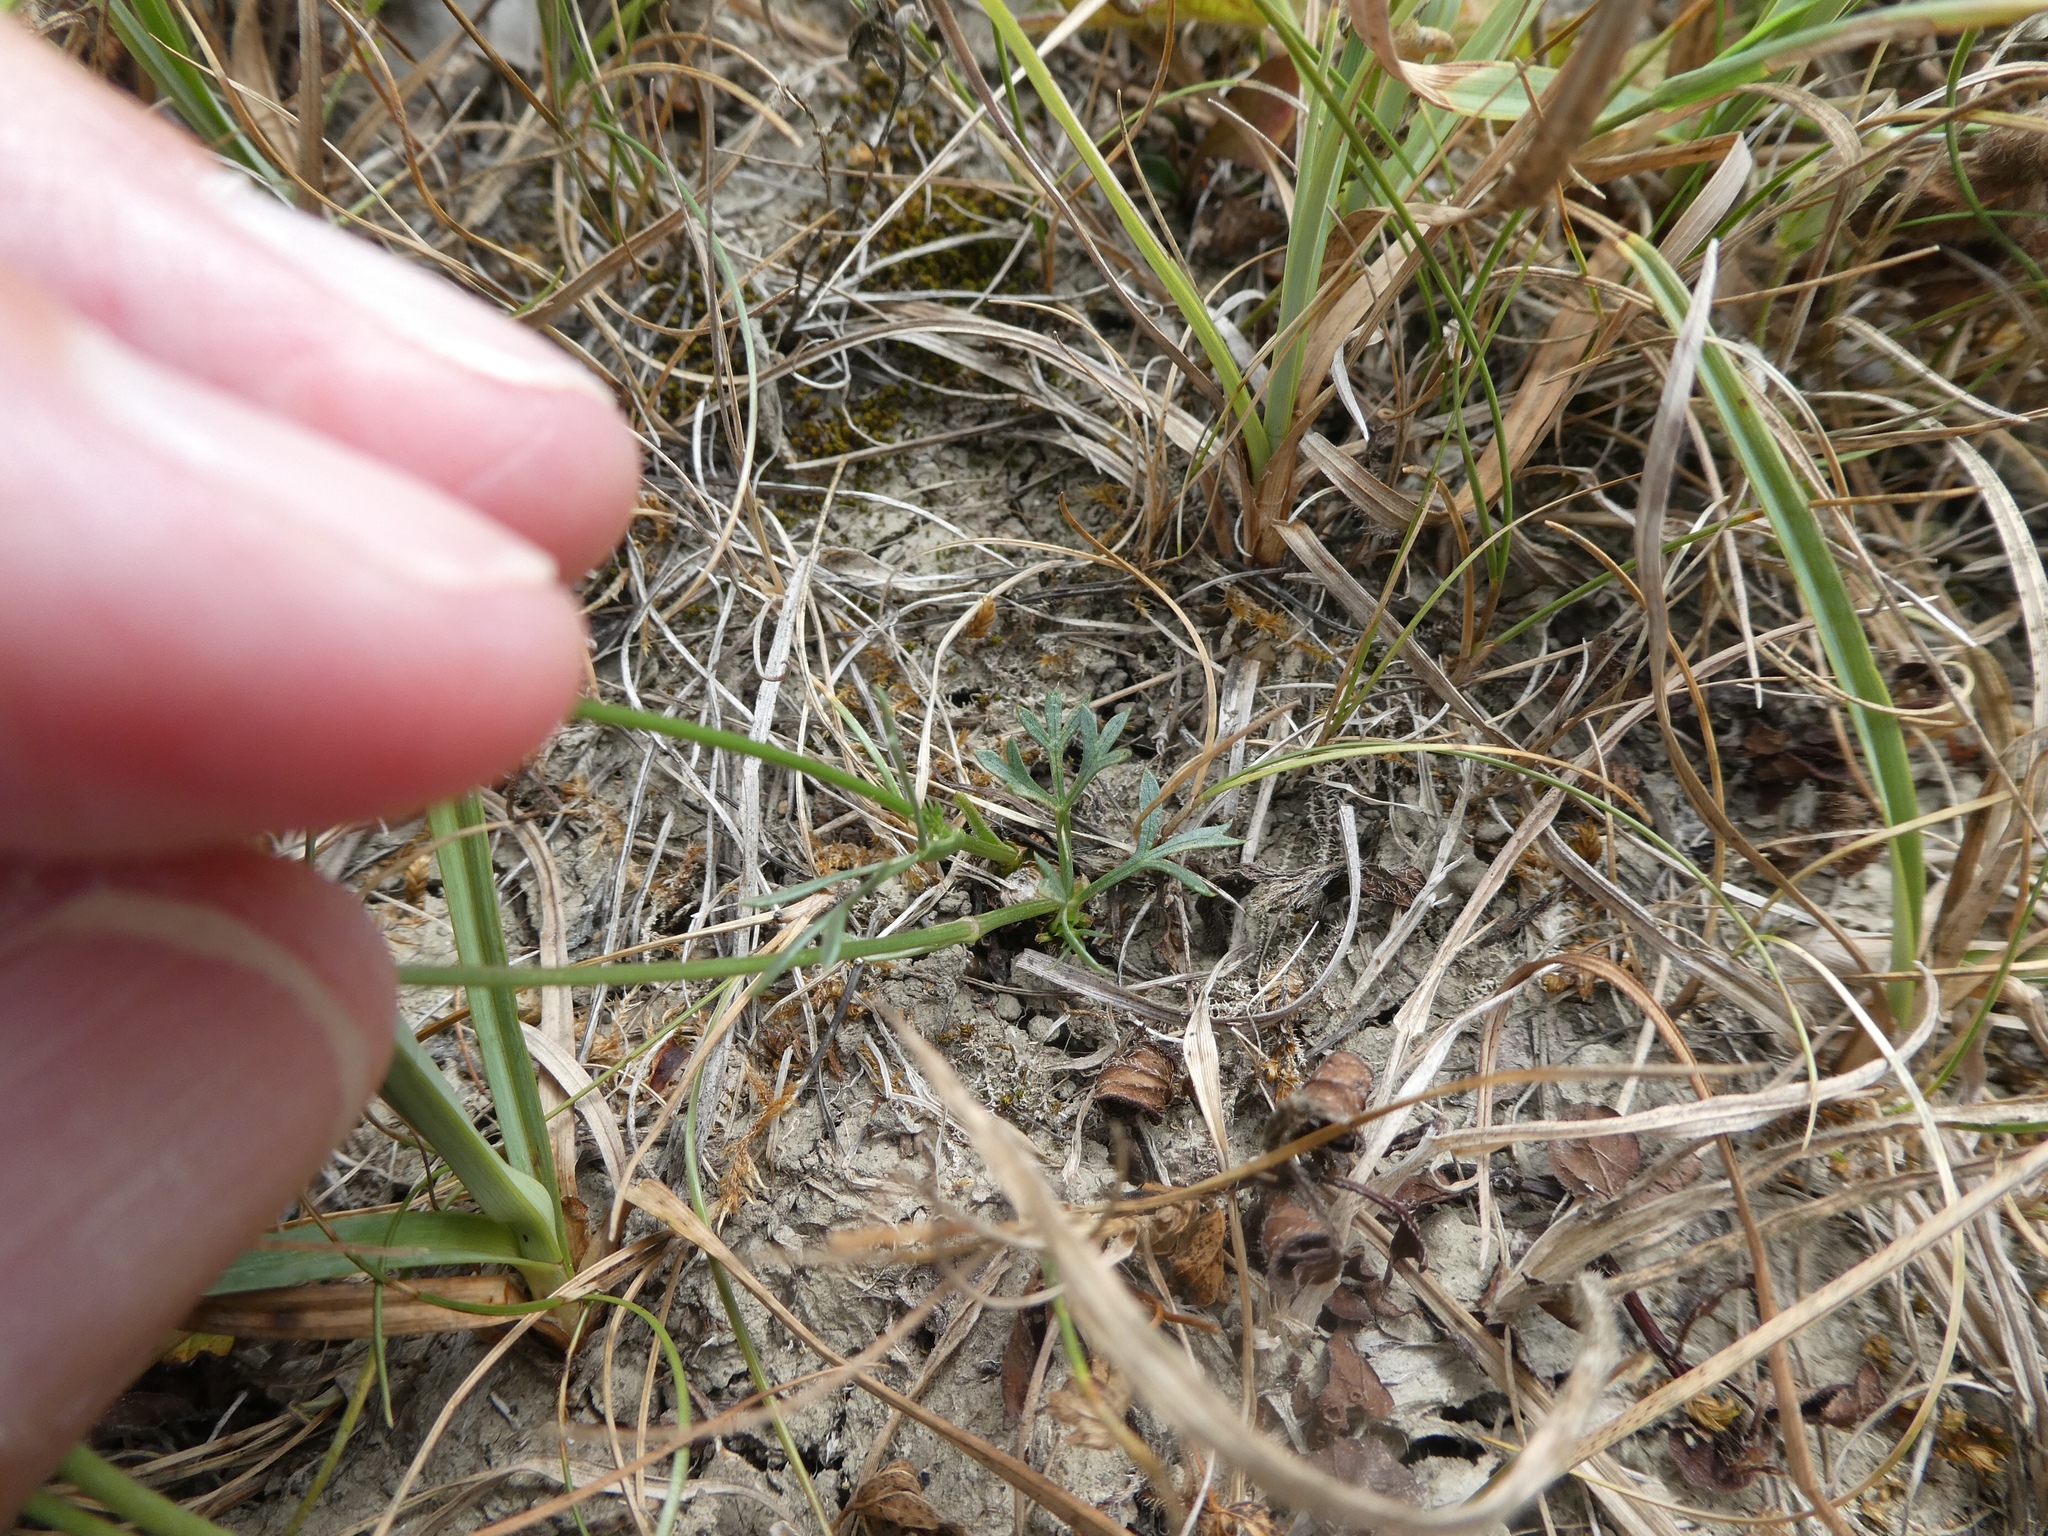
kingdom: Plantae
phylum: Tracheophyta
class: Magnoliopsida
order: Apiales
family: Apiaceae
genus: Daucus
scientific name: Daucus carota
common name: Wild carrot
